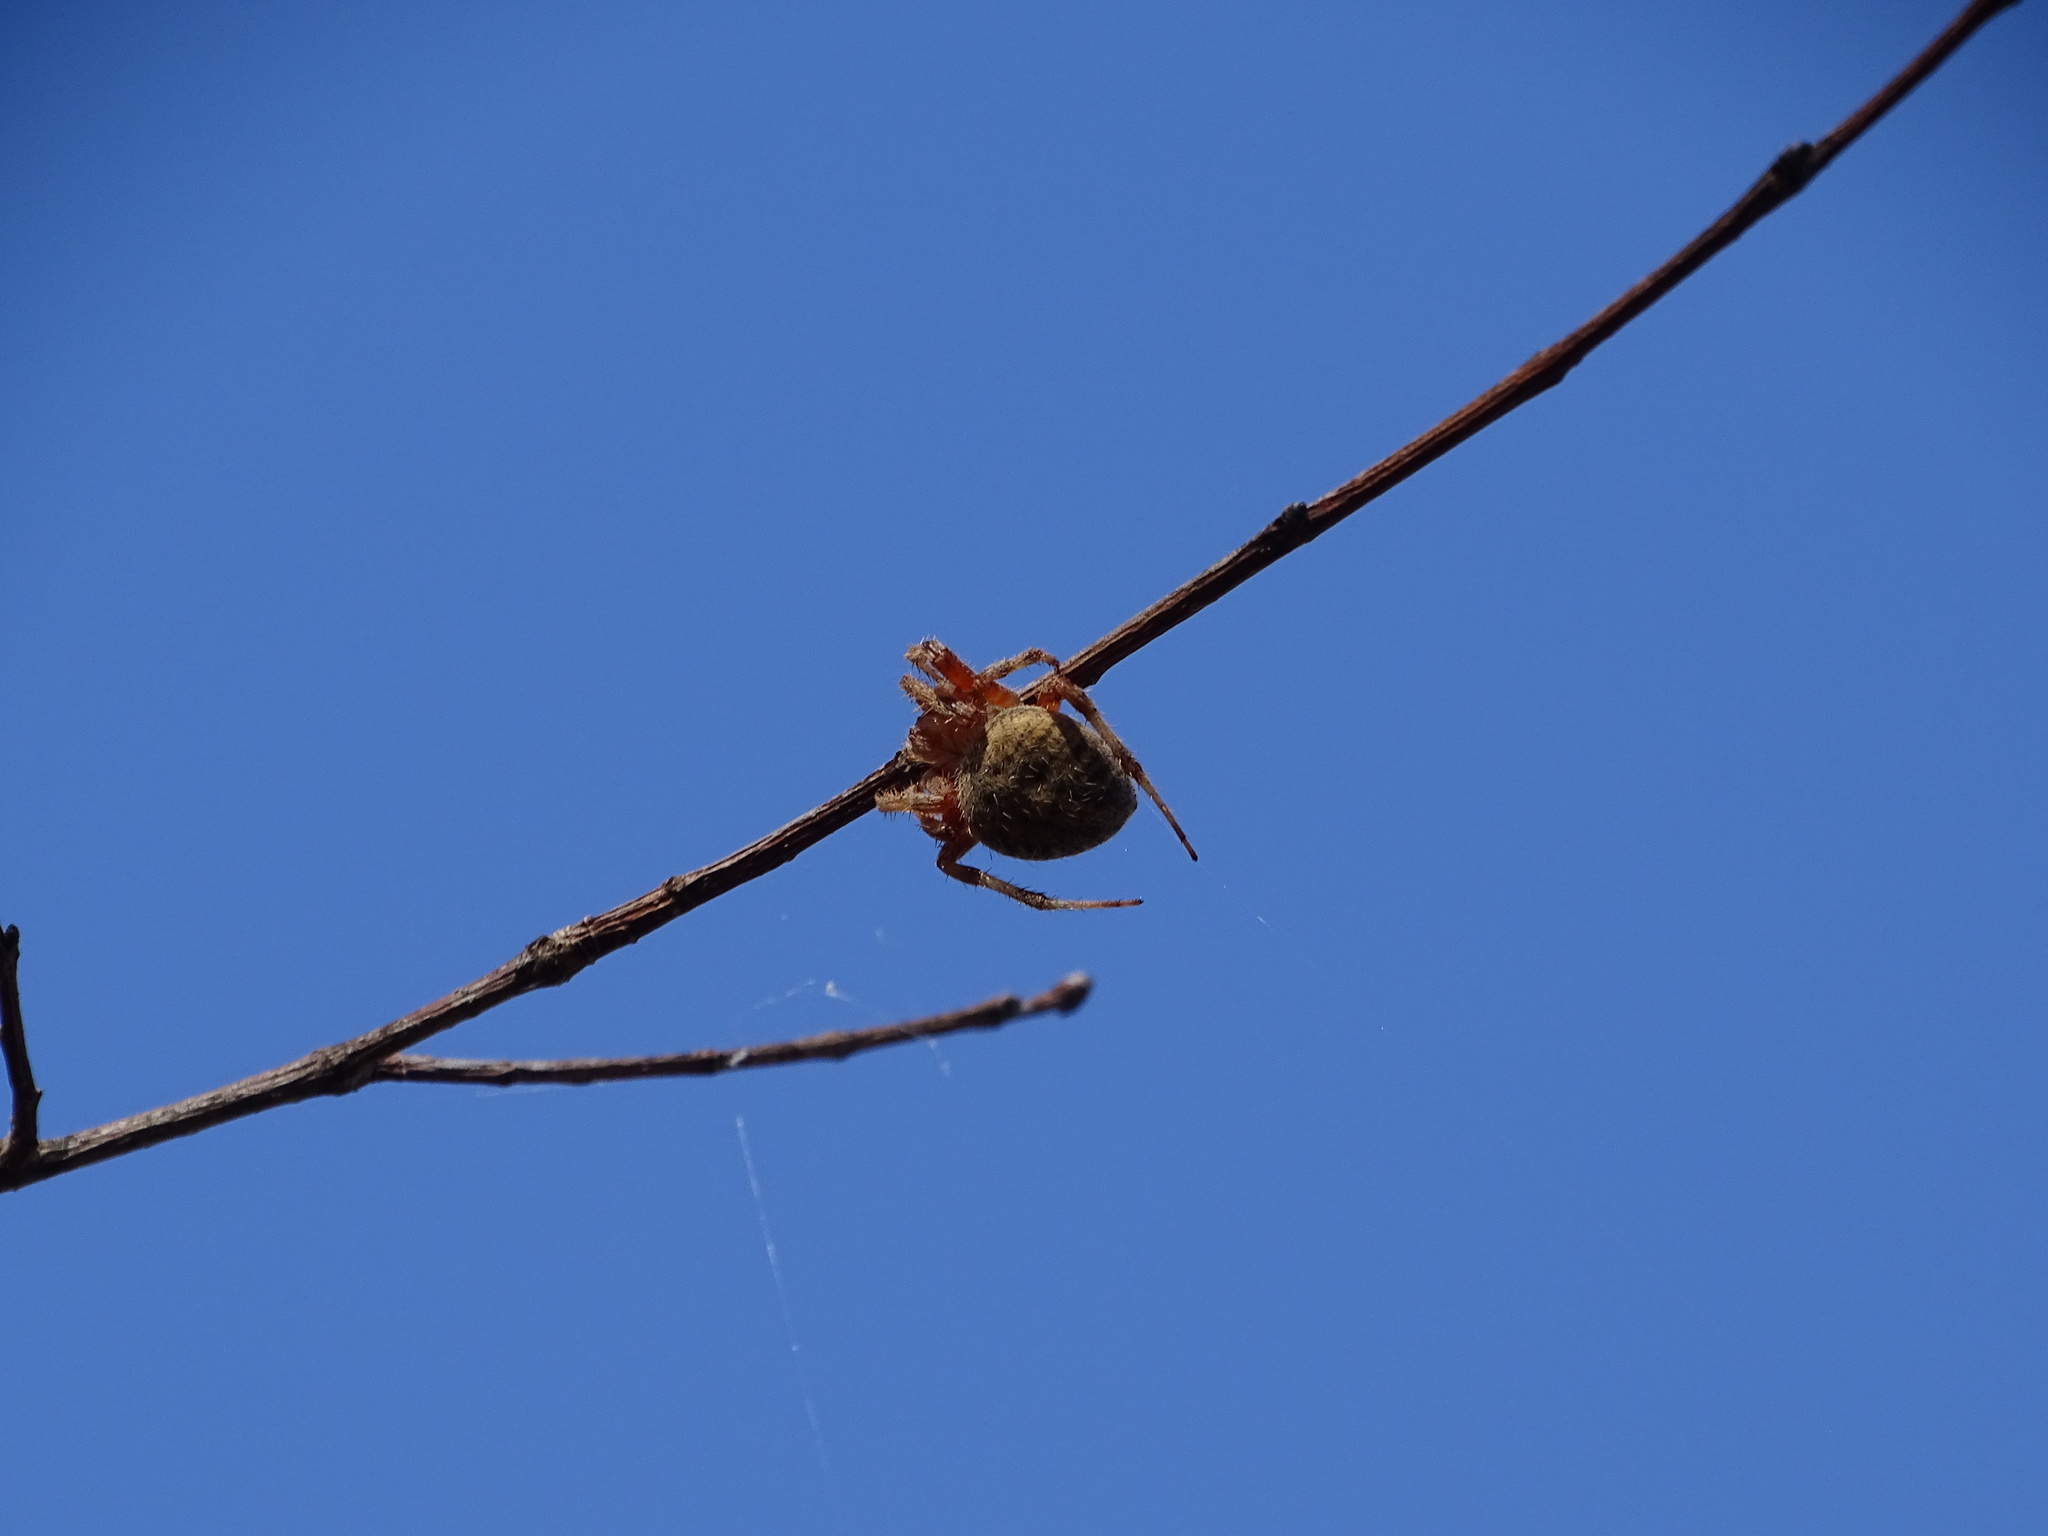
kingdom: Animalia
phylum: Arthropoda
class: Arachnida
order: Araneae
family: Araneidae
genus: Neoscona
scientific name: Neoscona crucifera
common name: Spotted orbweaver
